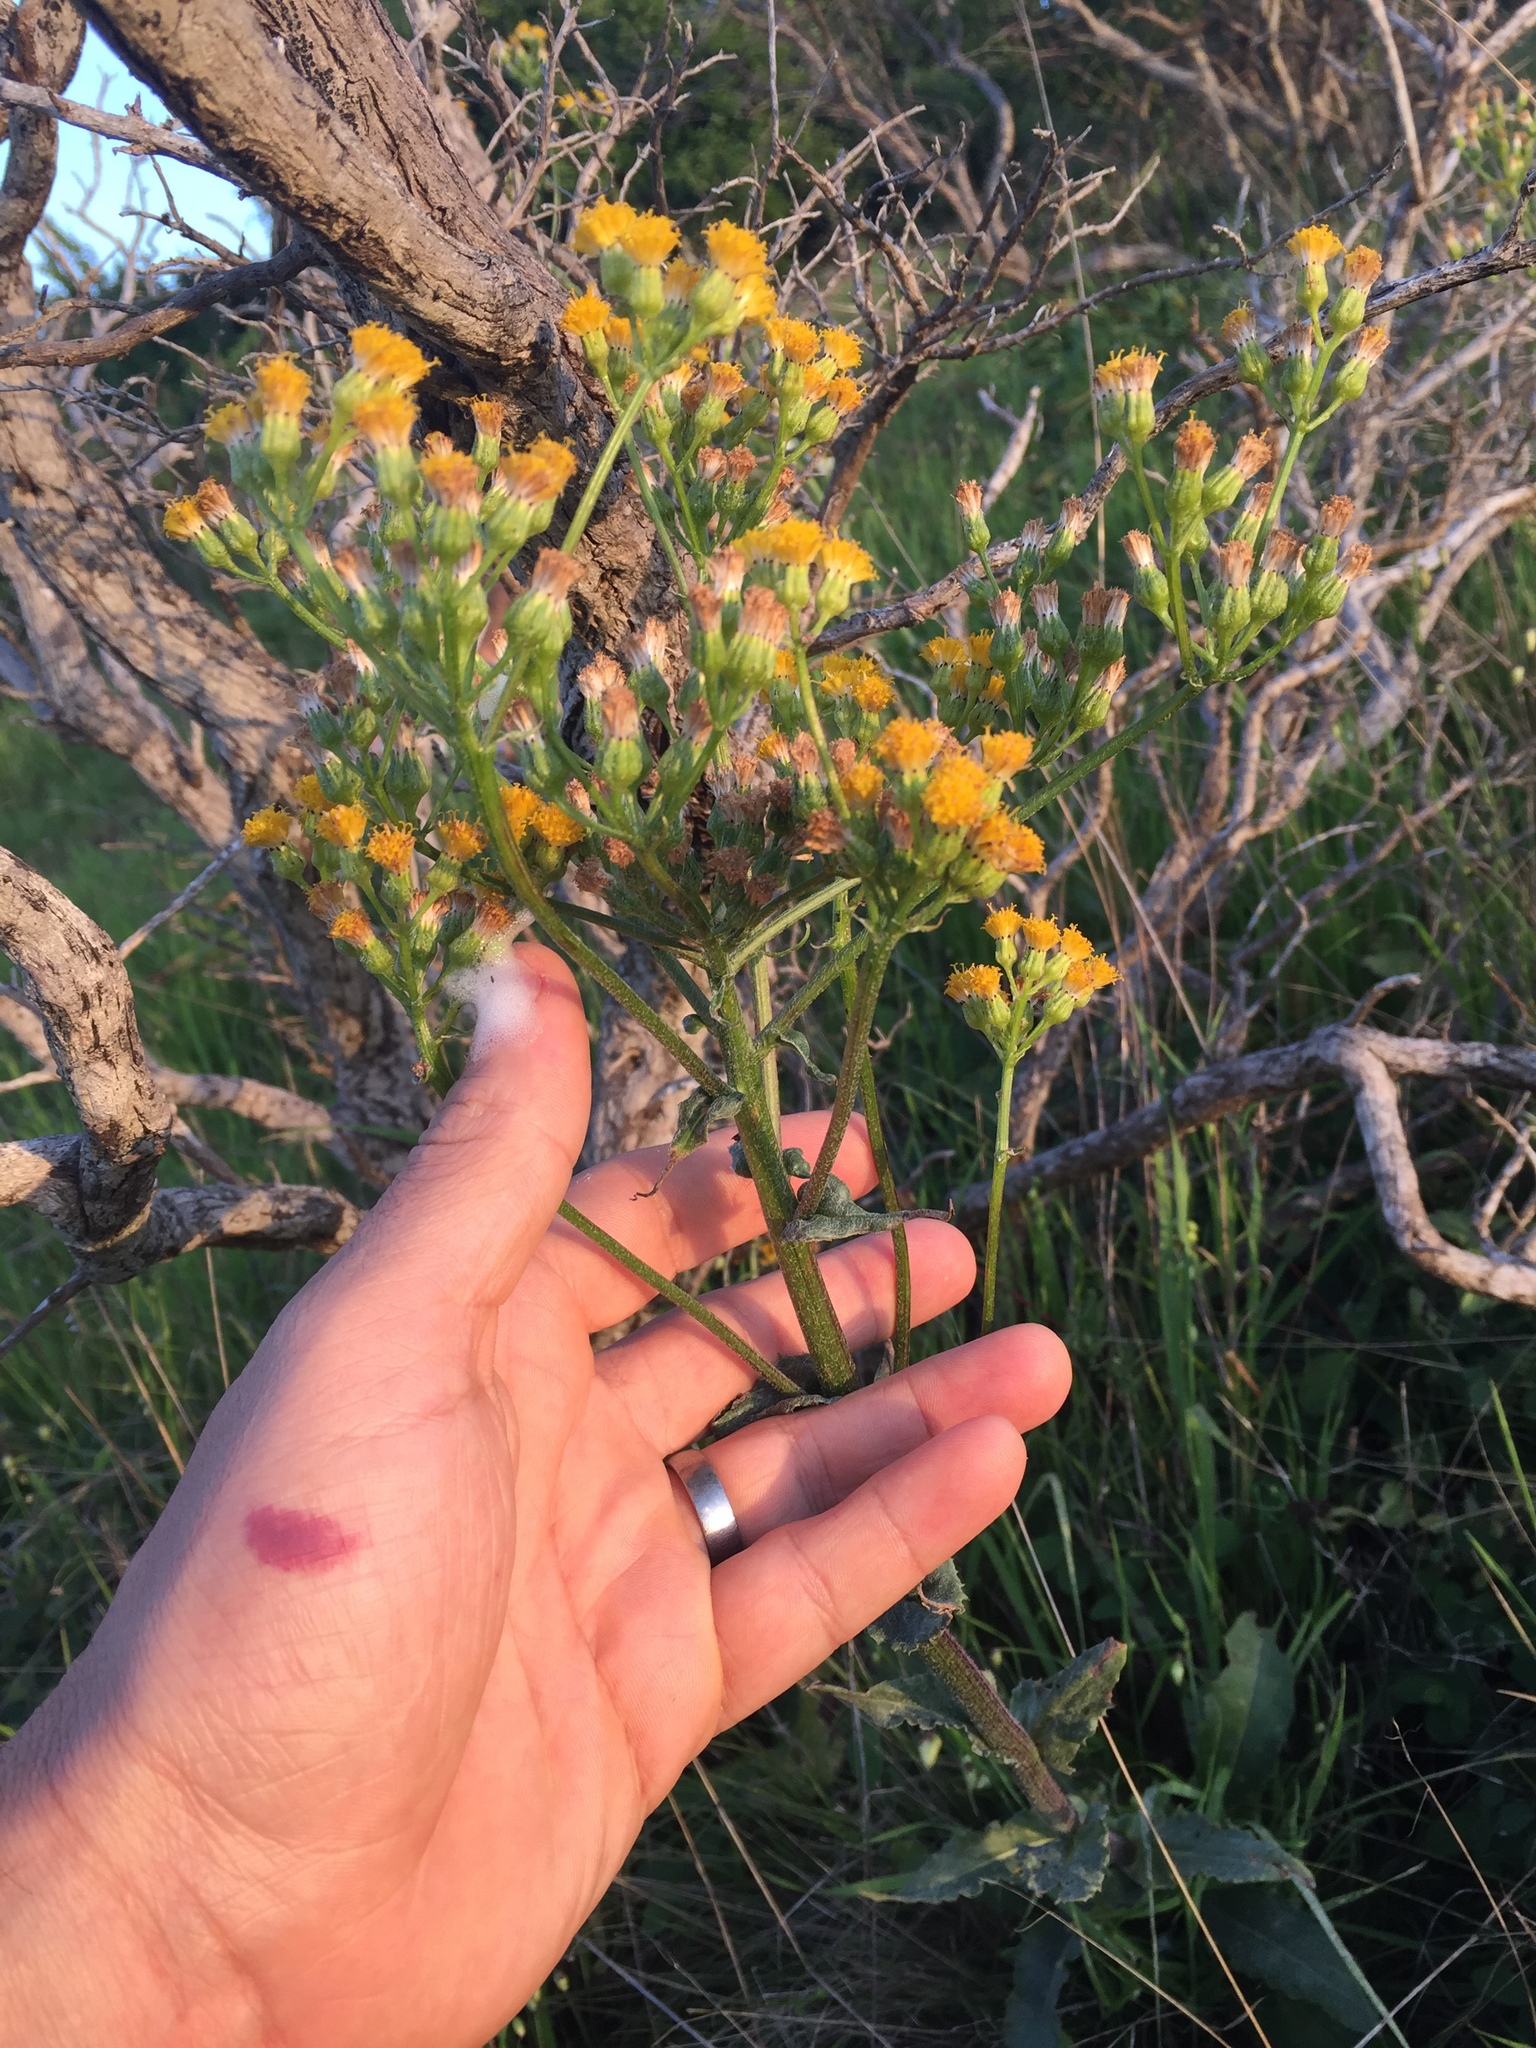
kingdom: Plantae
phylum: Tracheophyta
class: Magnoliopsida
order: Asterales
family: Asteraceae
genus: Senecio
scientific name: Senecio aronicoides
